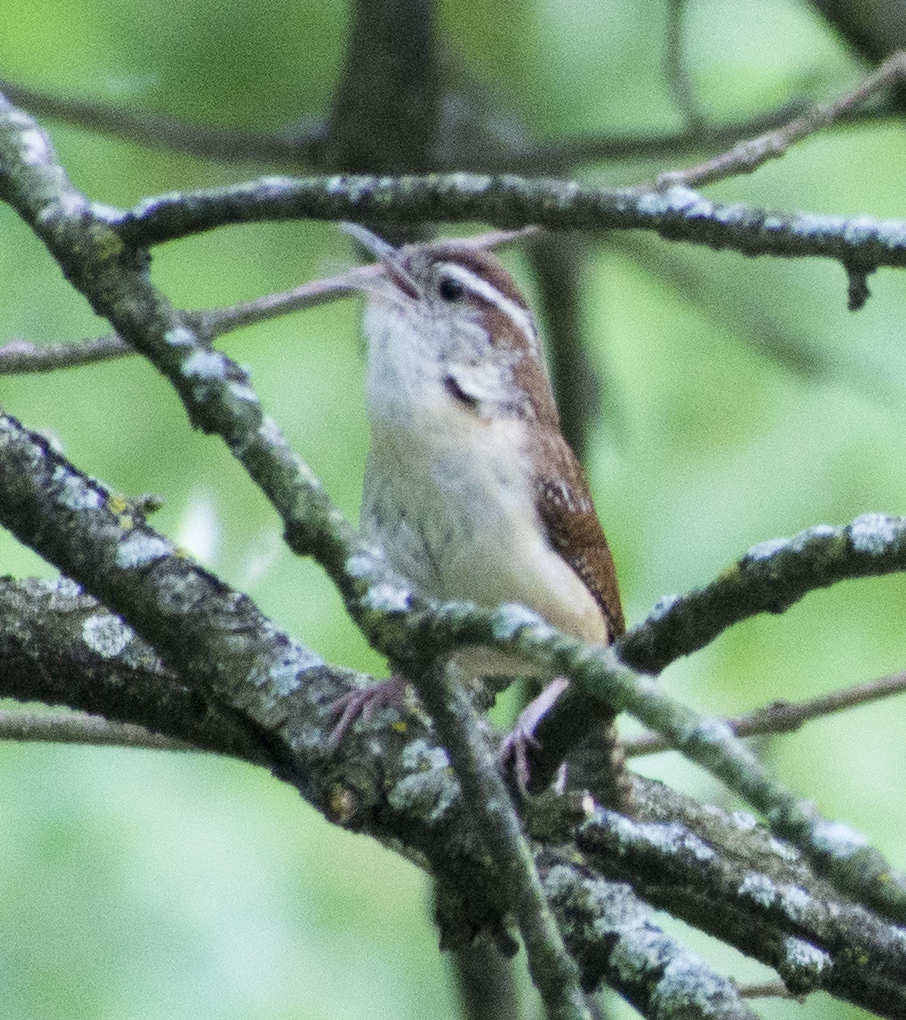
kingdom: Animalia
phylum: Chordata
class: Aves
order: Passeriformes
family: Troglodytidae
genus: Thryothorus
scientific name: Thryothorus ludovicianus
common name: Carolina wren
